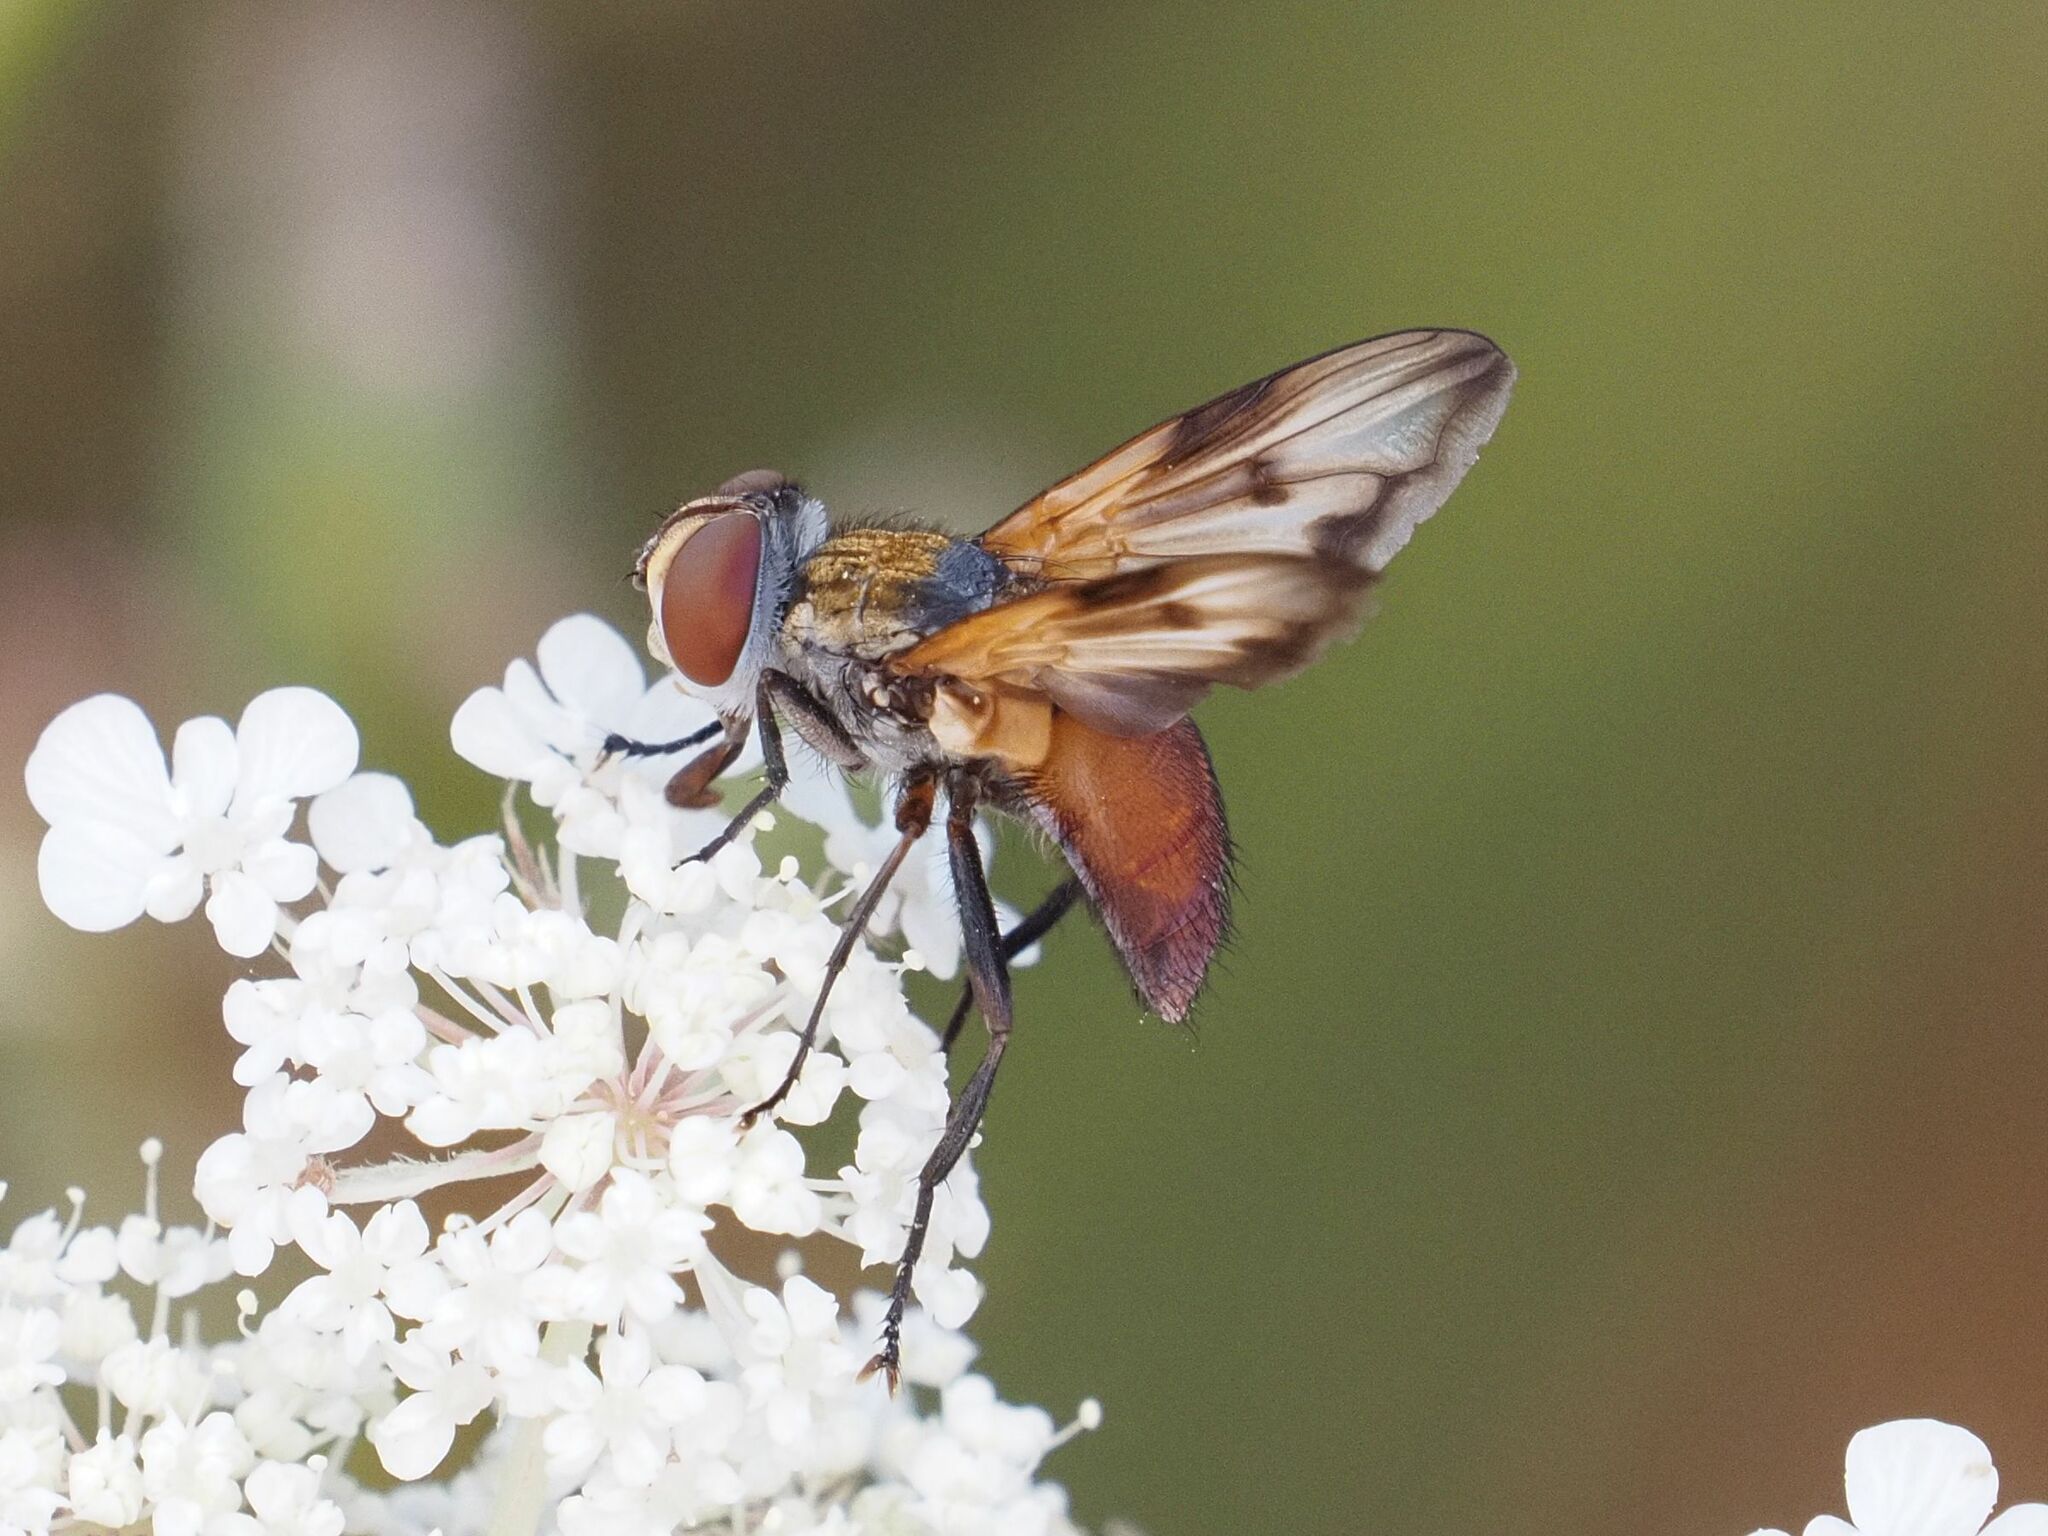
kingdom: Animalia
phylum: Arthropoda
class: Insecta
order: Diptera
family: Tachinidae
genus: Ectophasia
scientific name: Ectophasia oblonga
